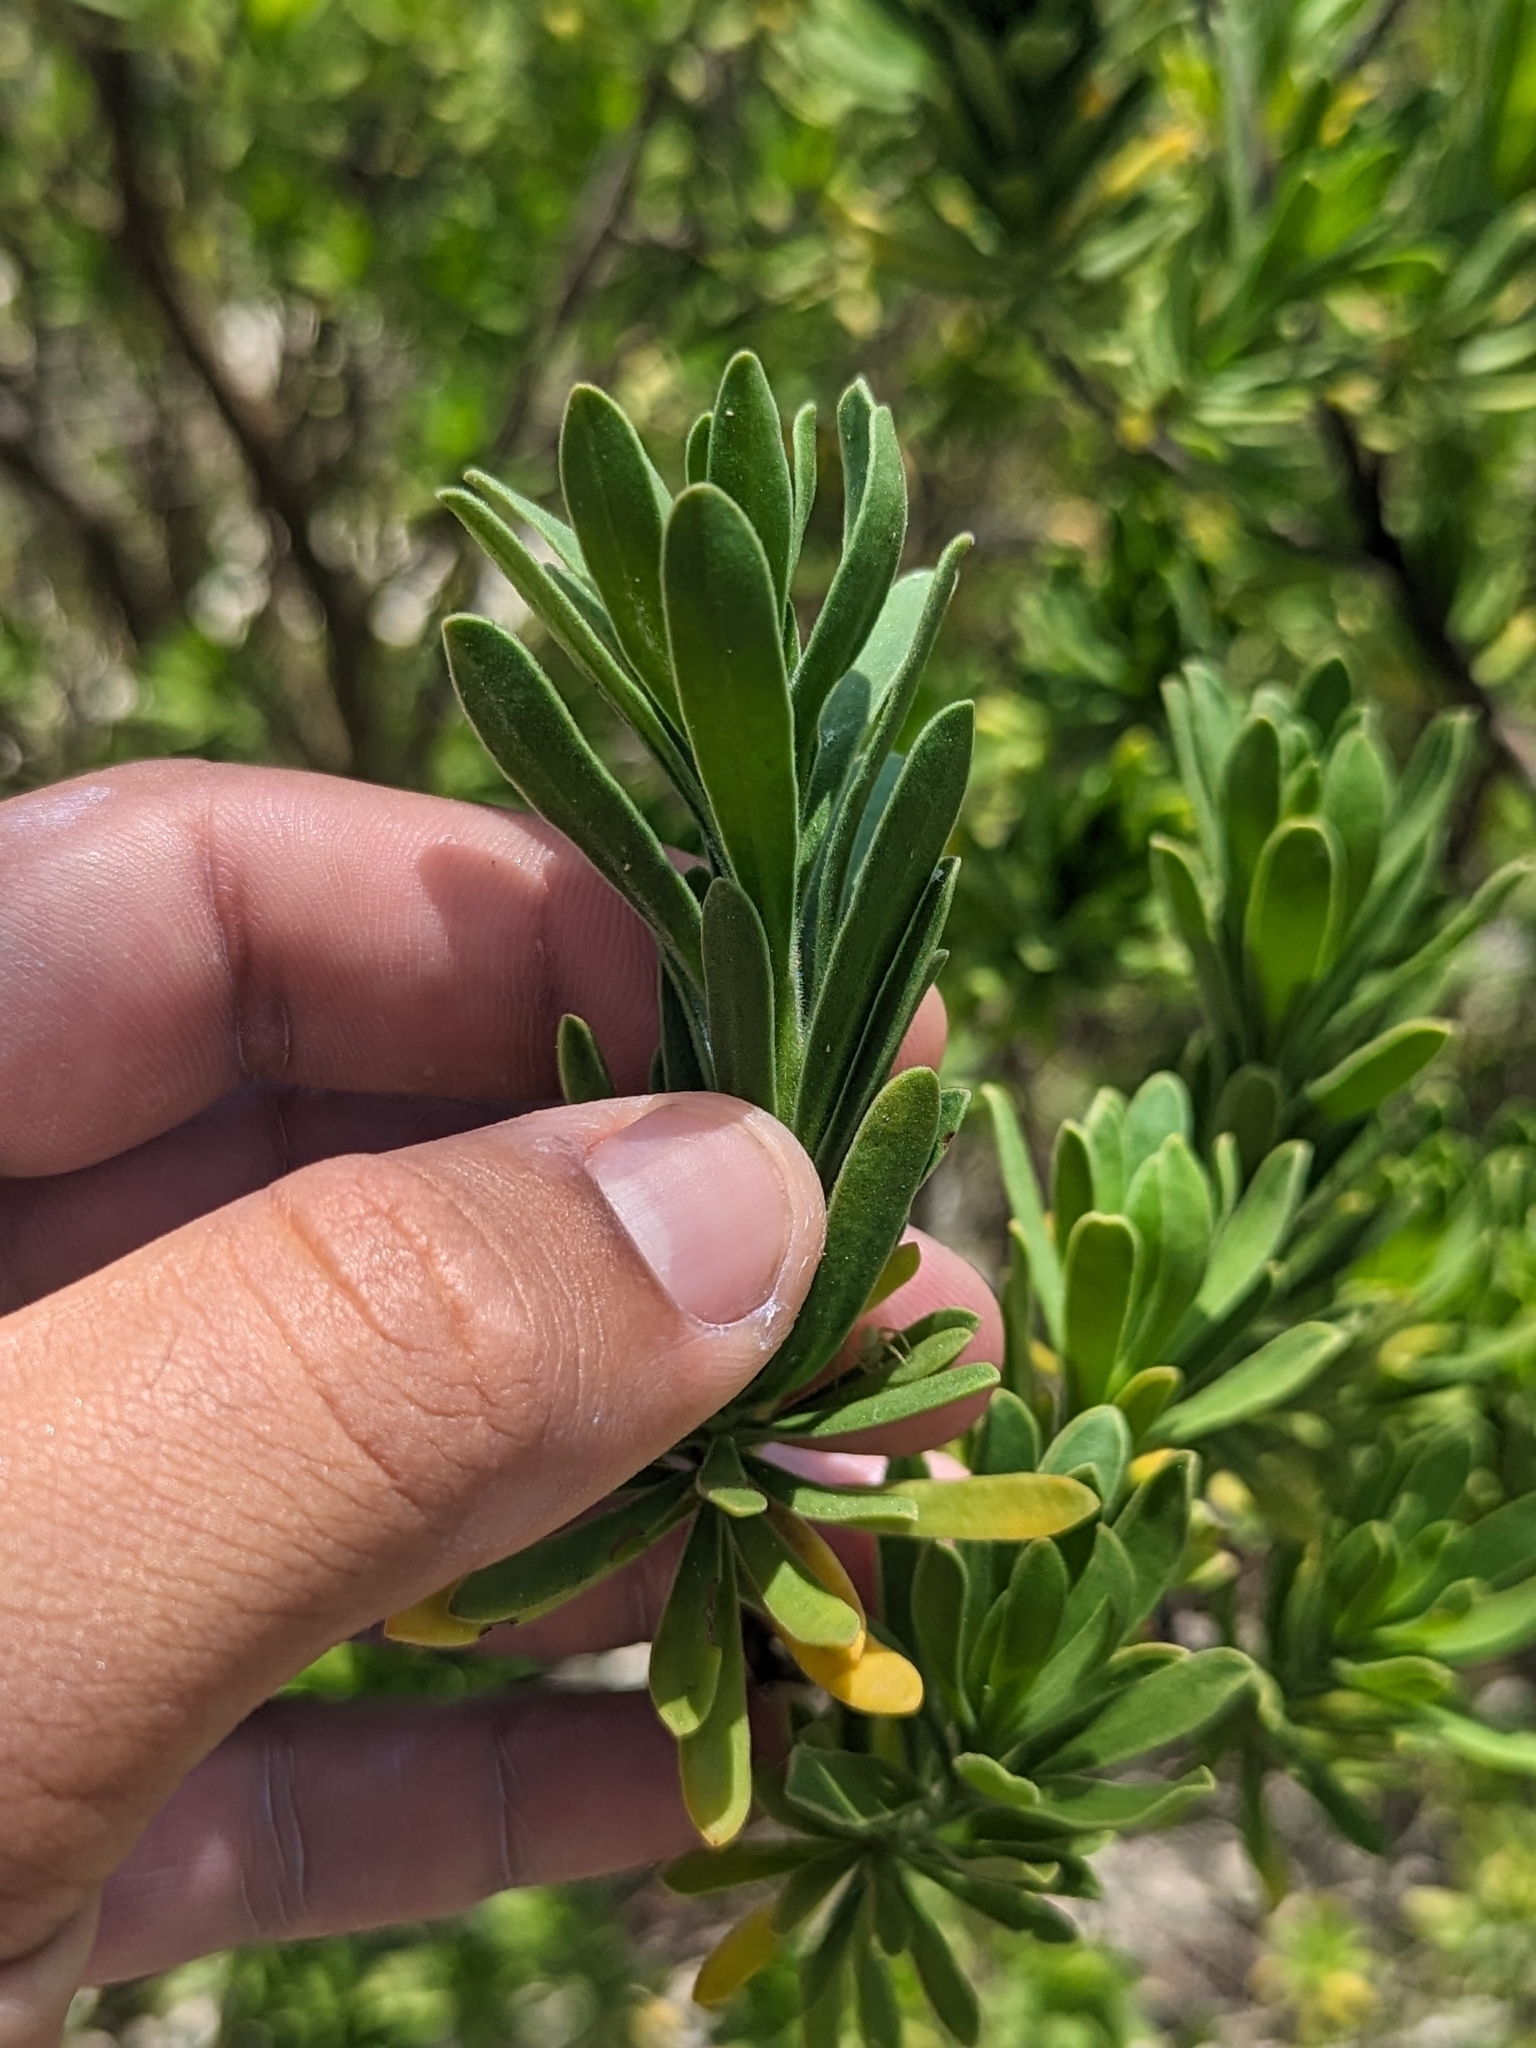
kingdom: Plantae
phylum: Tracheophyta
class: Magnoliopsida
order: Fabales
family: Surianaceae
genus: Suriana
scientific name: Suriana maritima
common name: Bay-cedar
